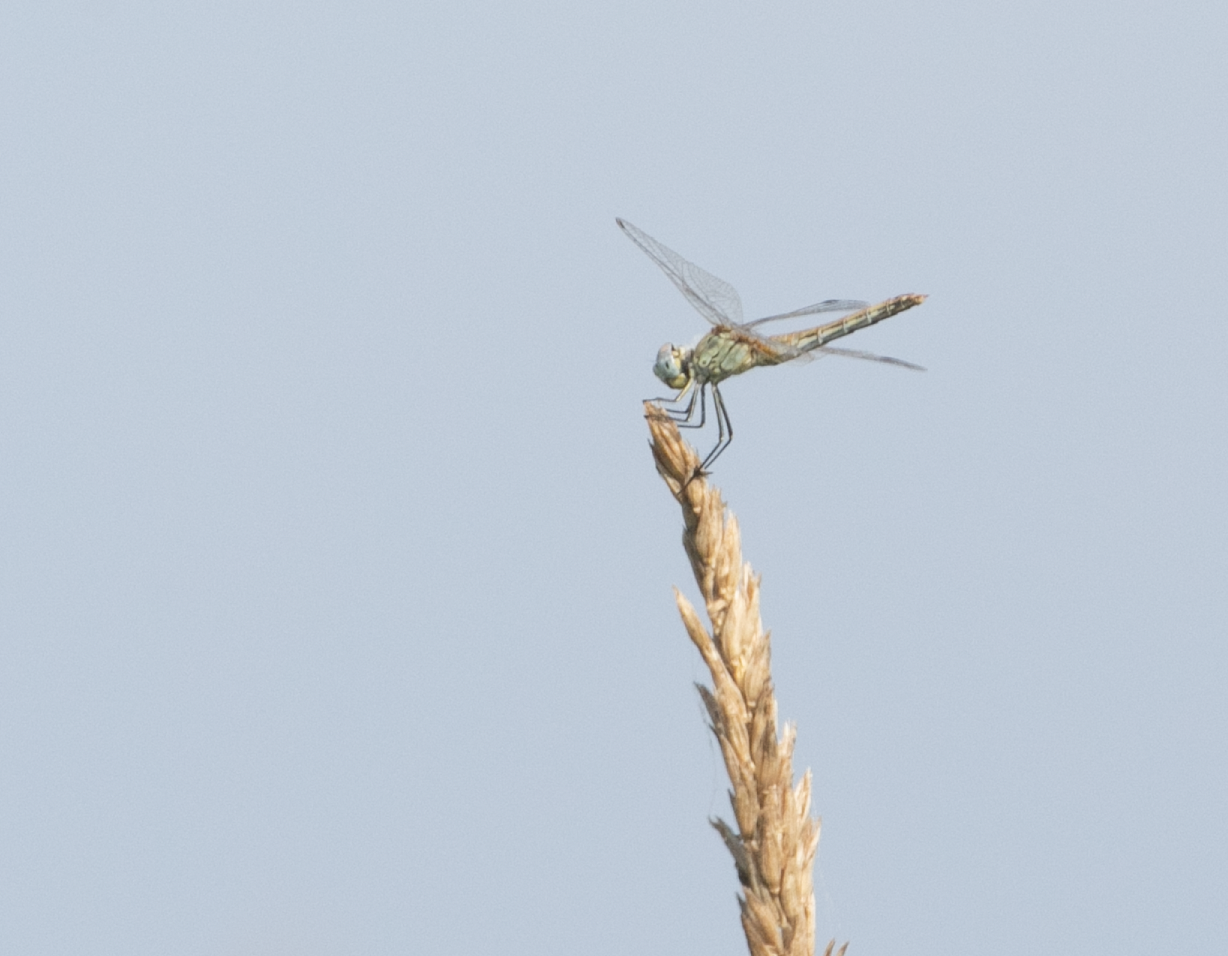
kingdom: Animalia
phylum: Arthropoda
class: Insecta
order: Odonata
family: Libellulidae
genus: Sympetrum
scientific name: Sympetrum fonscolombii
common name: Red-veined darter
